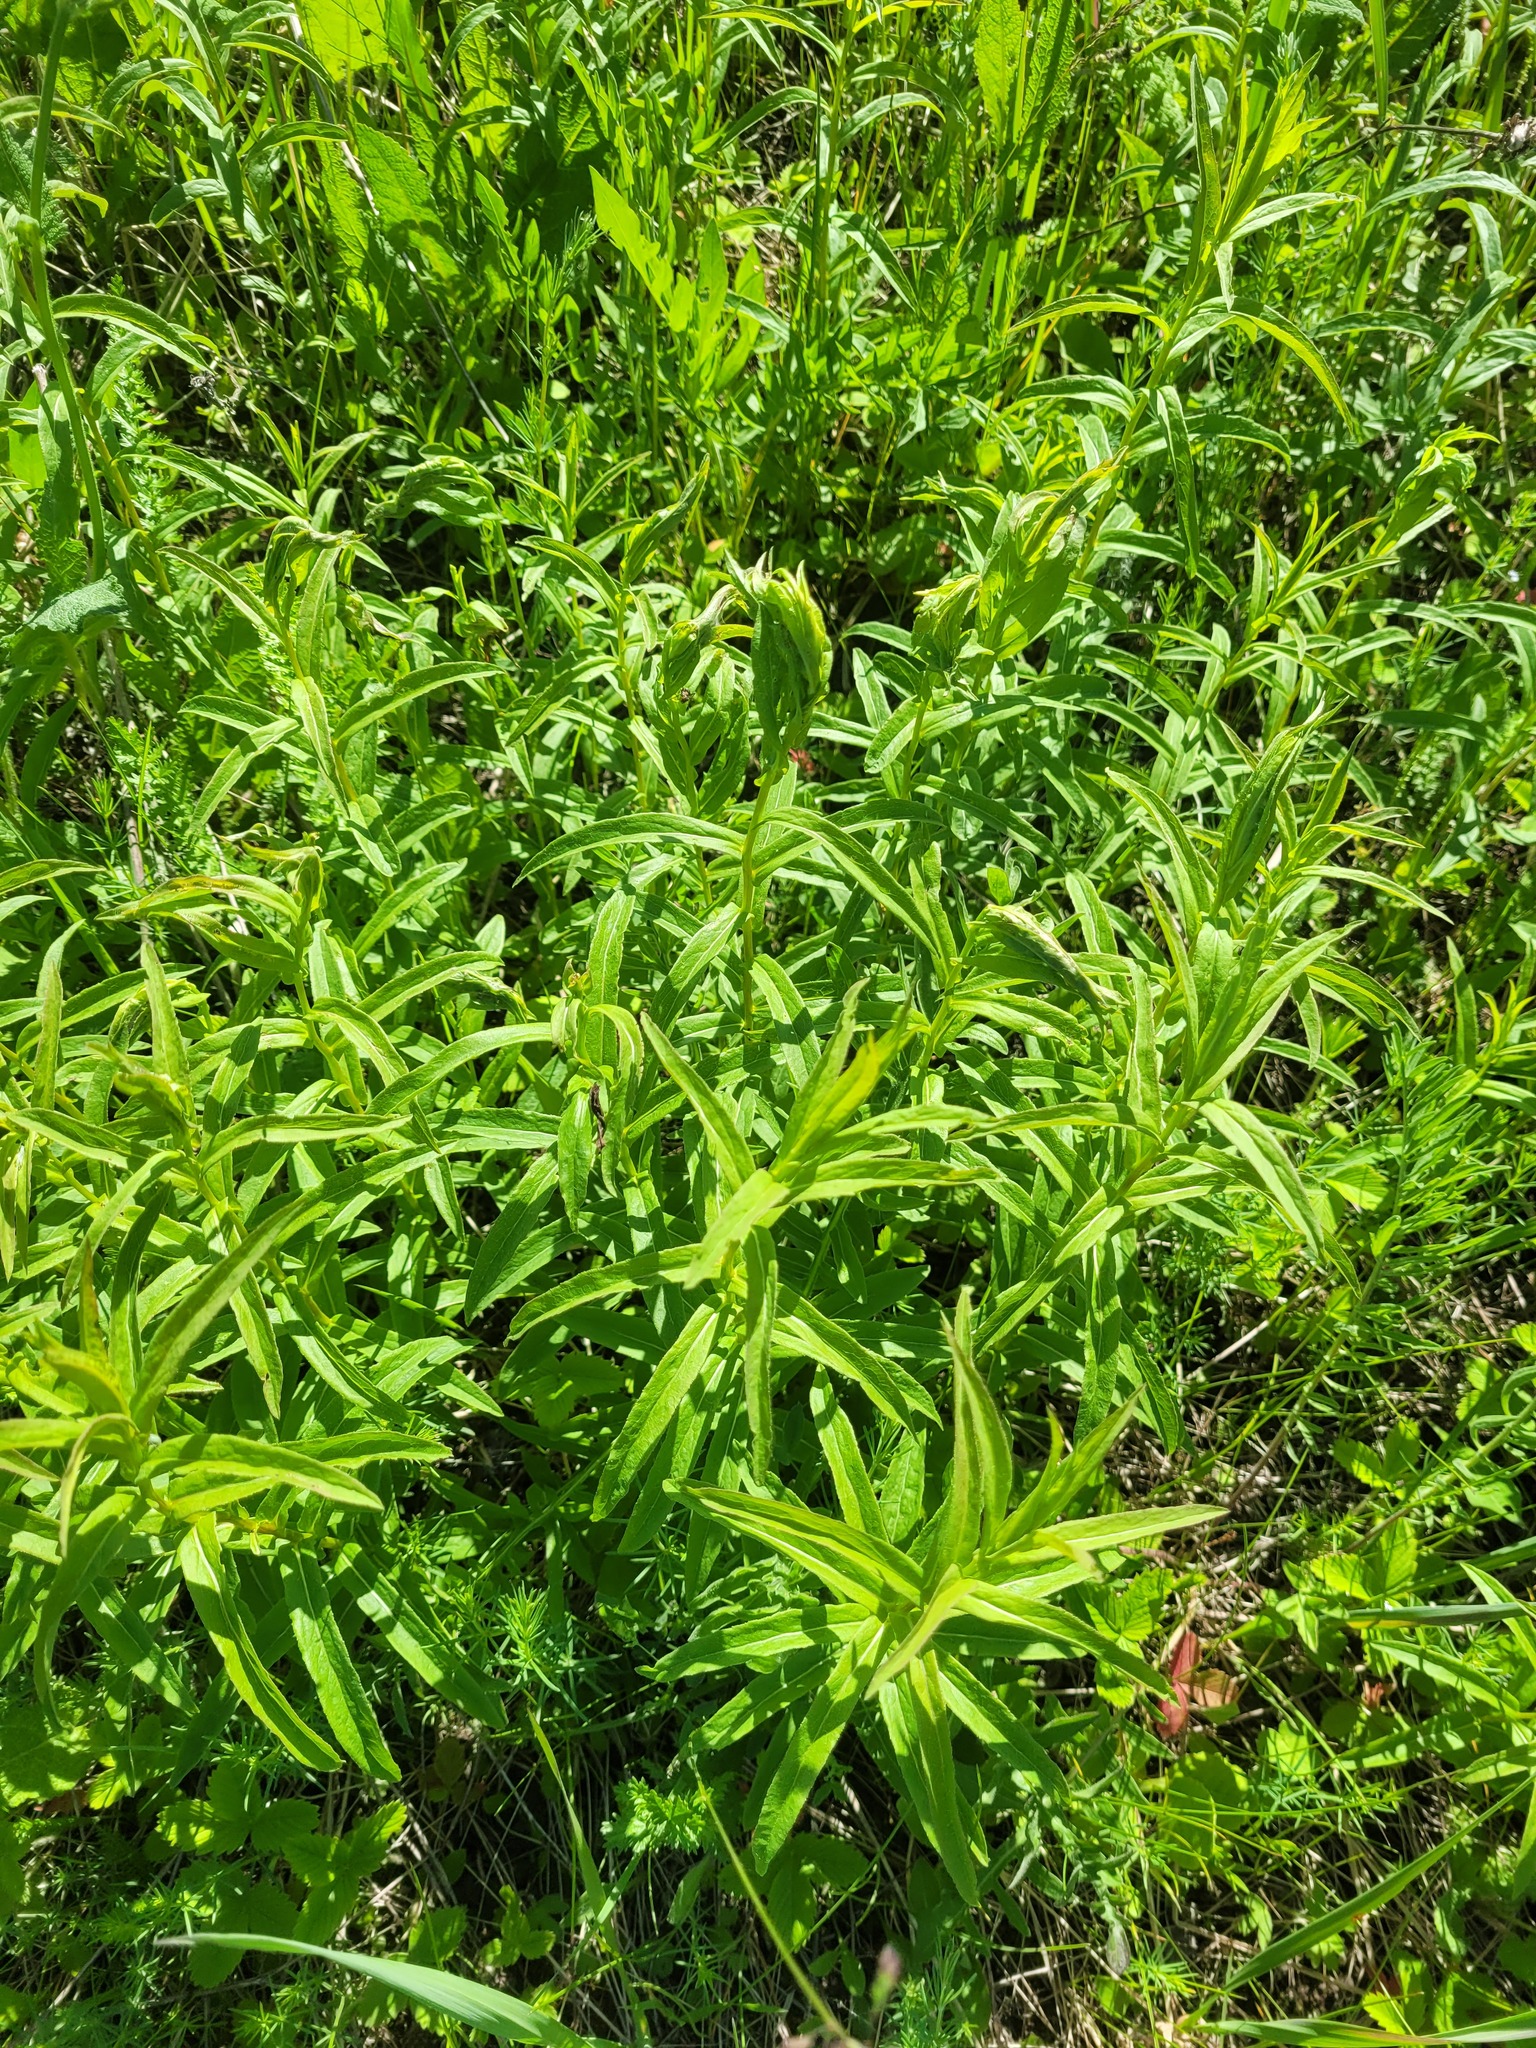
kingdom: Plantae
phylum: Tracheophyta
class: Magnoliopsida
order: Asterales
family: Asteraceae
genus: Pentanema
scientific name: Pentanema salicinum
